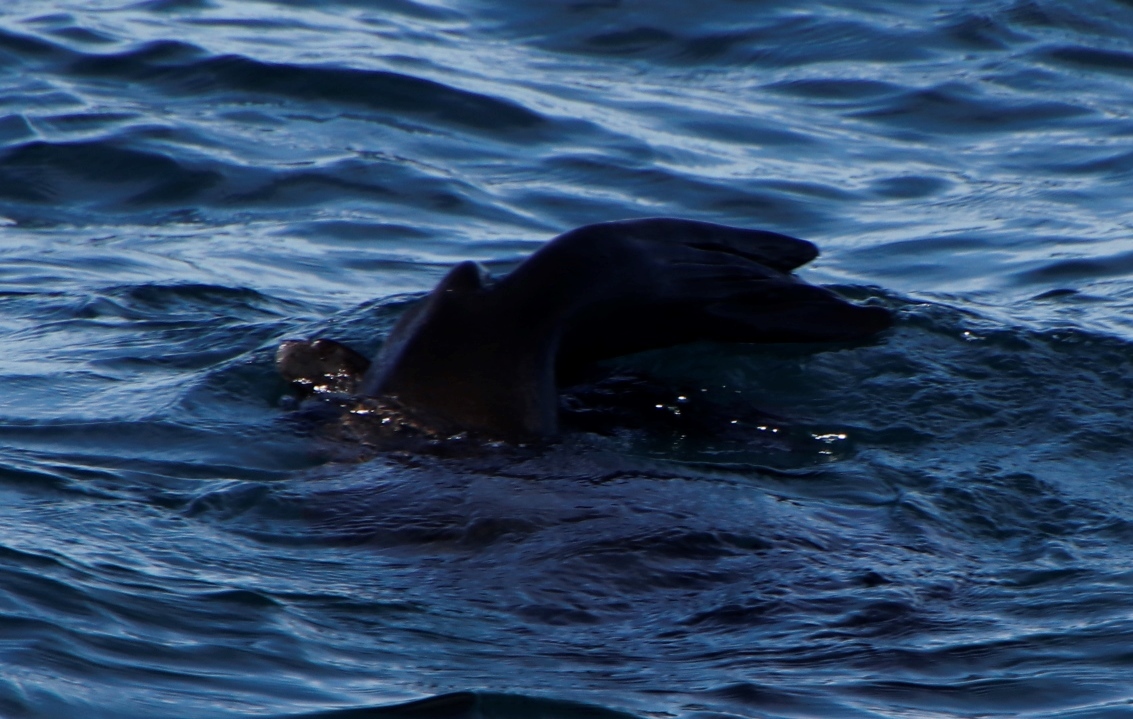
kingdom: Animalia
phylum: Chordata
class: Mammalia
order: Carnivora
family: Otariidae
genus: Arctocephalus
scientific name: Arctocephalus pusillus
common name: Brown fur seal
